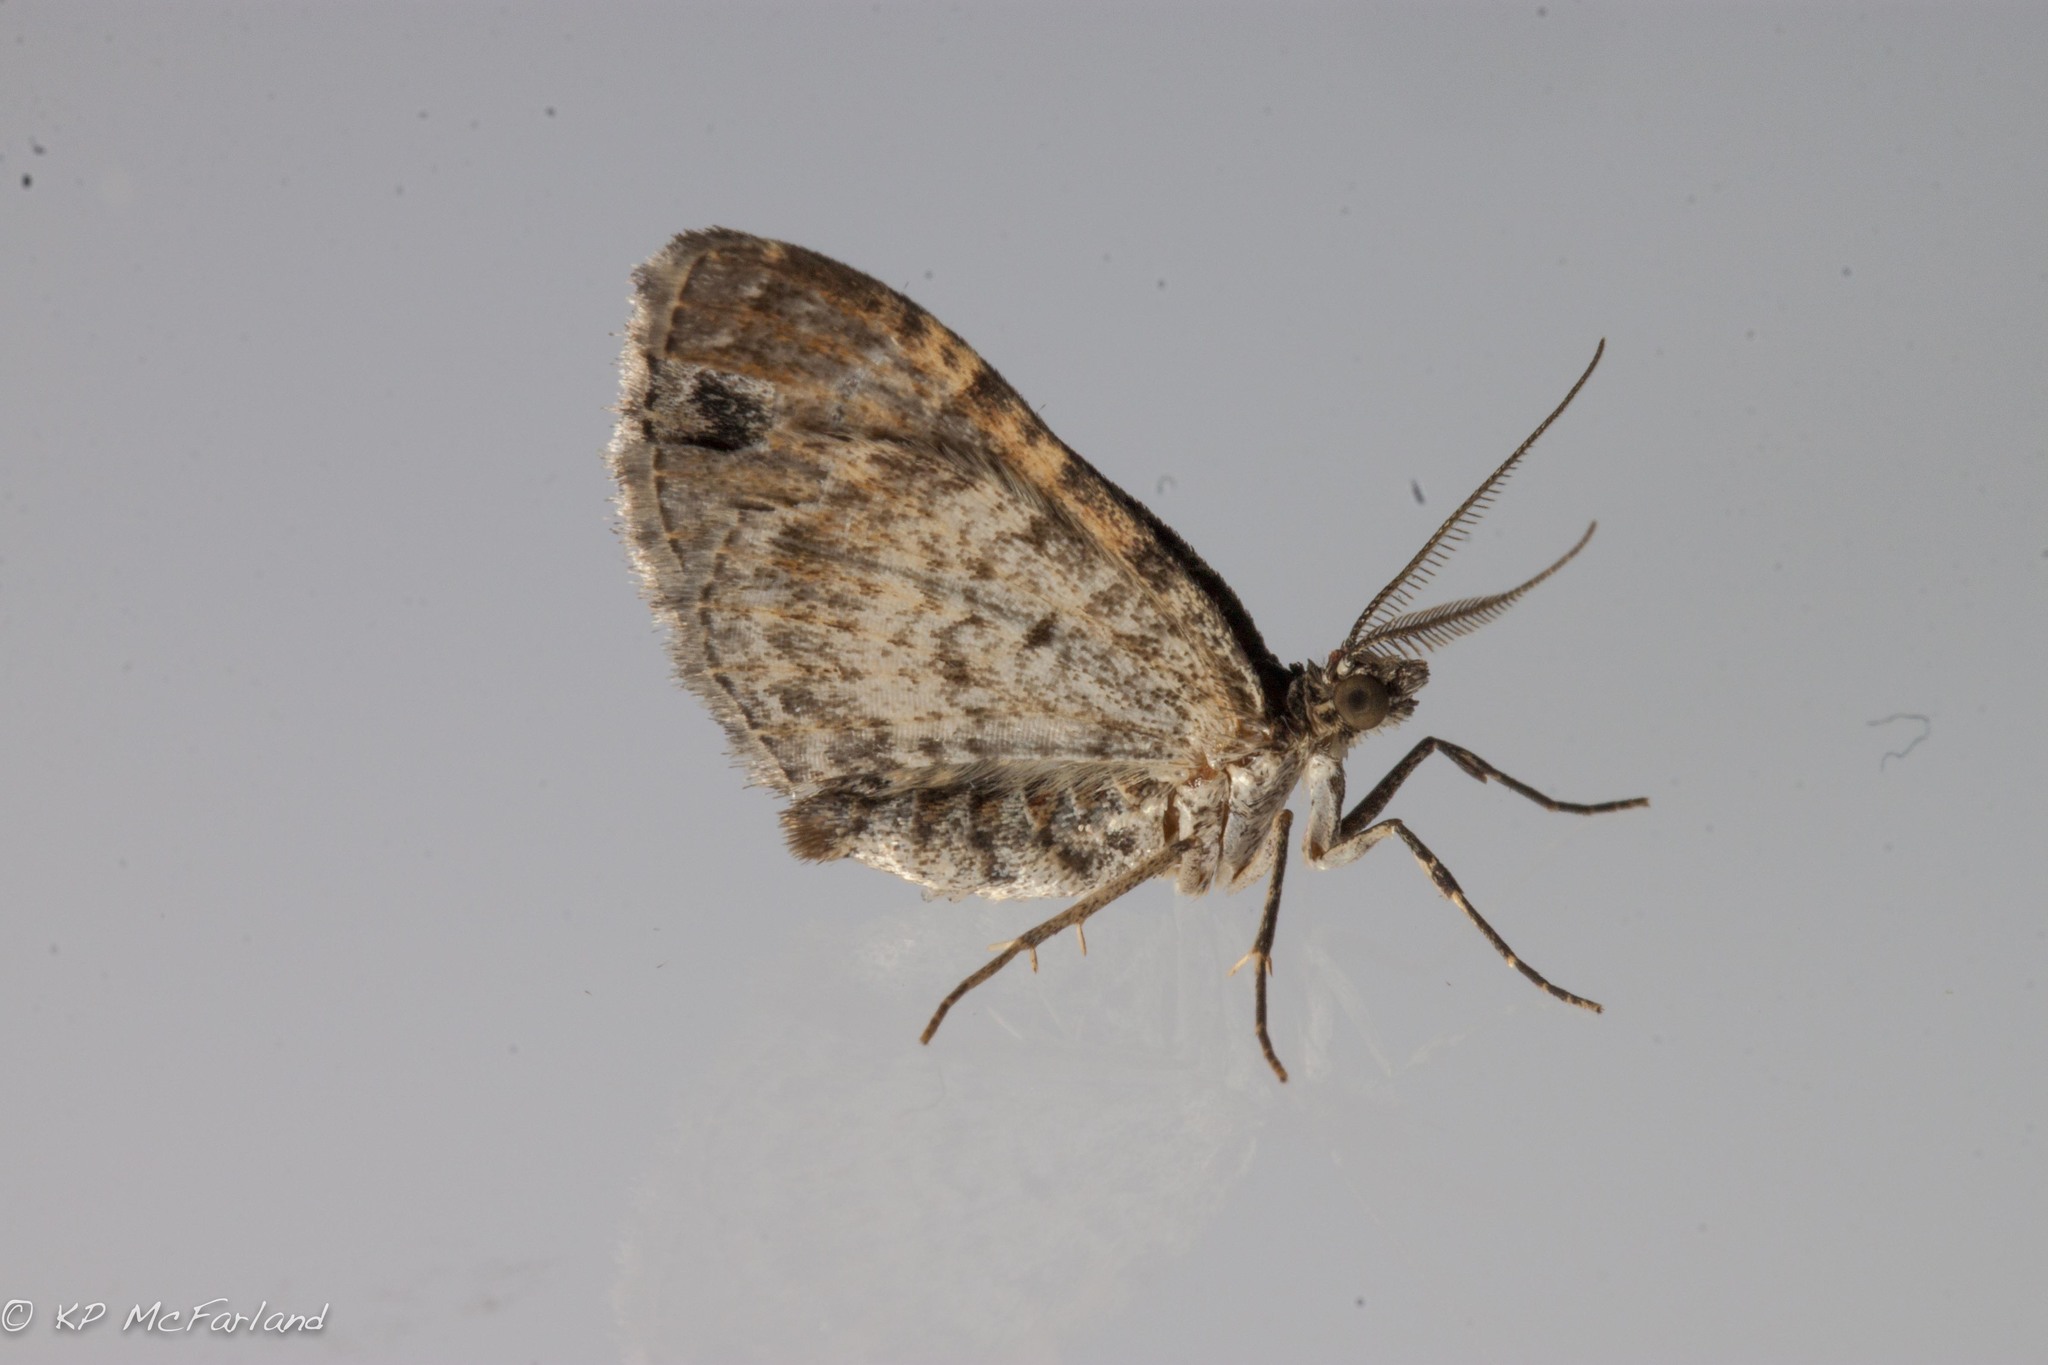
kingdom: Animalia
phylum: Arthropoda
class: Insecta
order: Lepidoptera
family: Geometridae
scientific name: Geometridae
